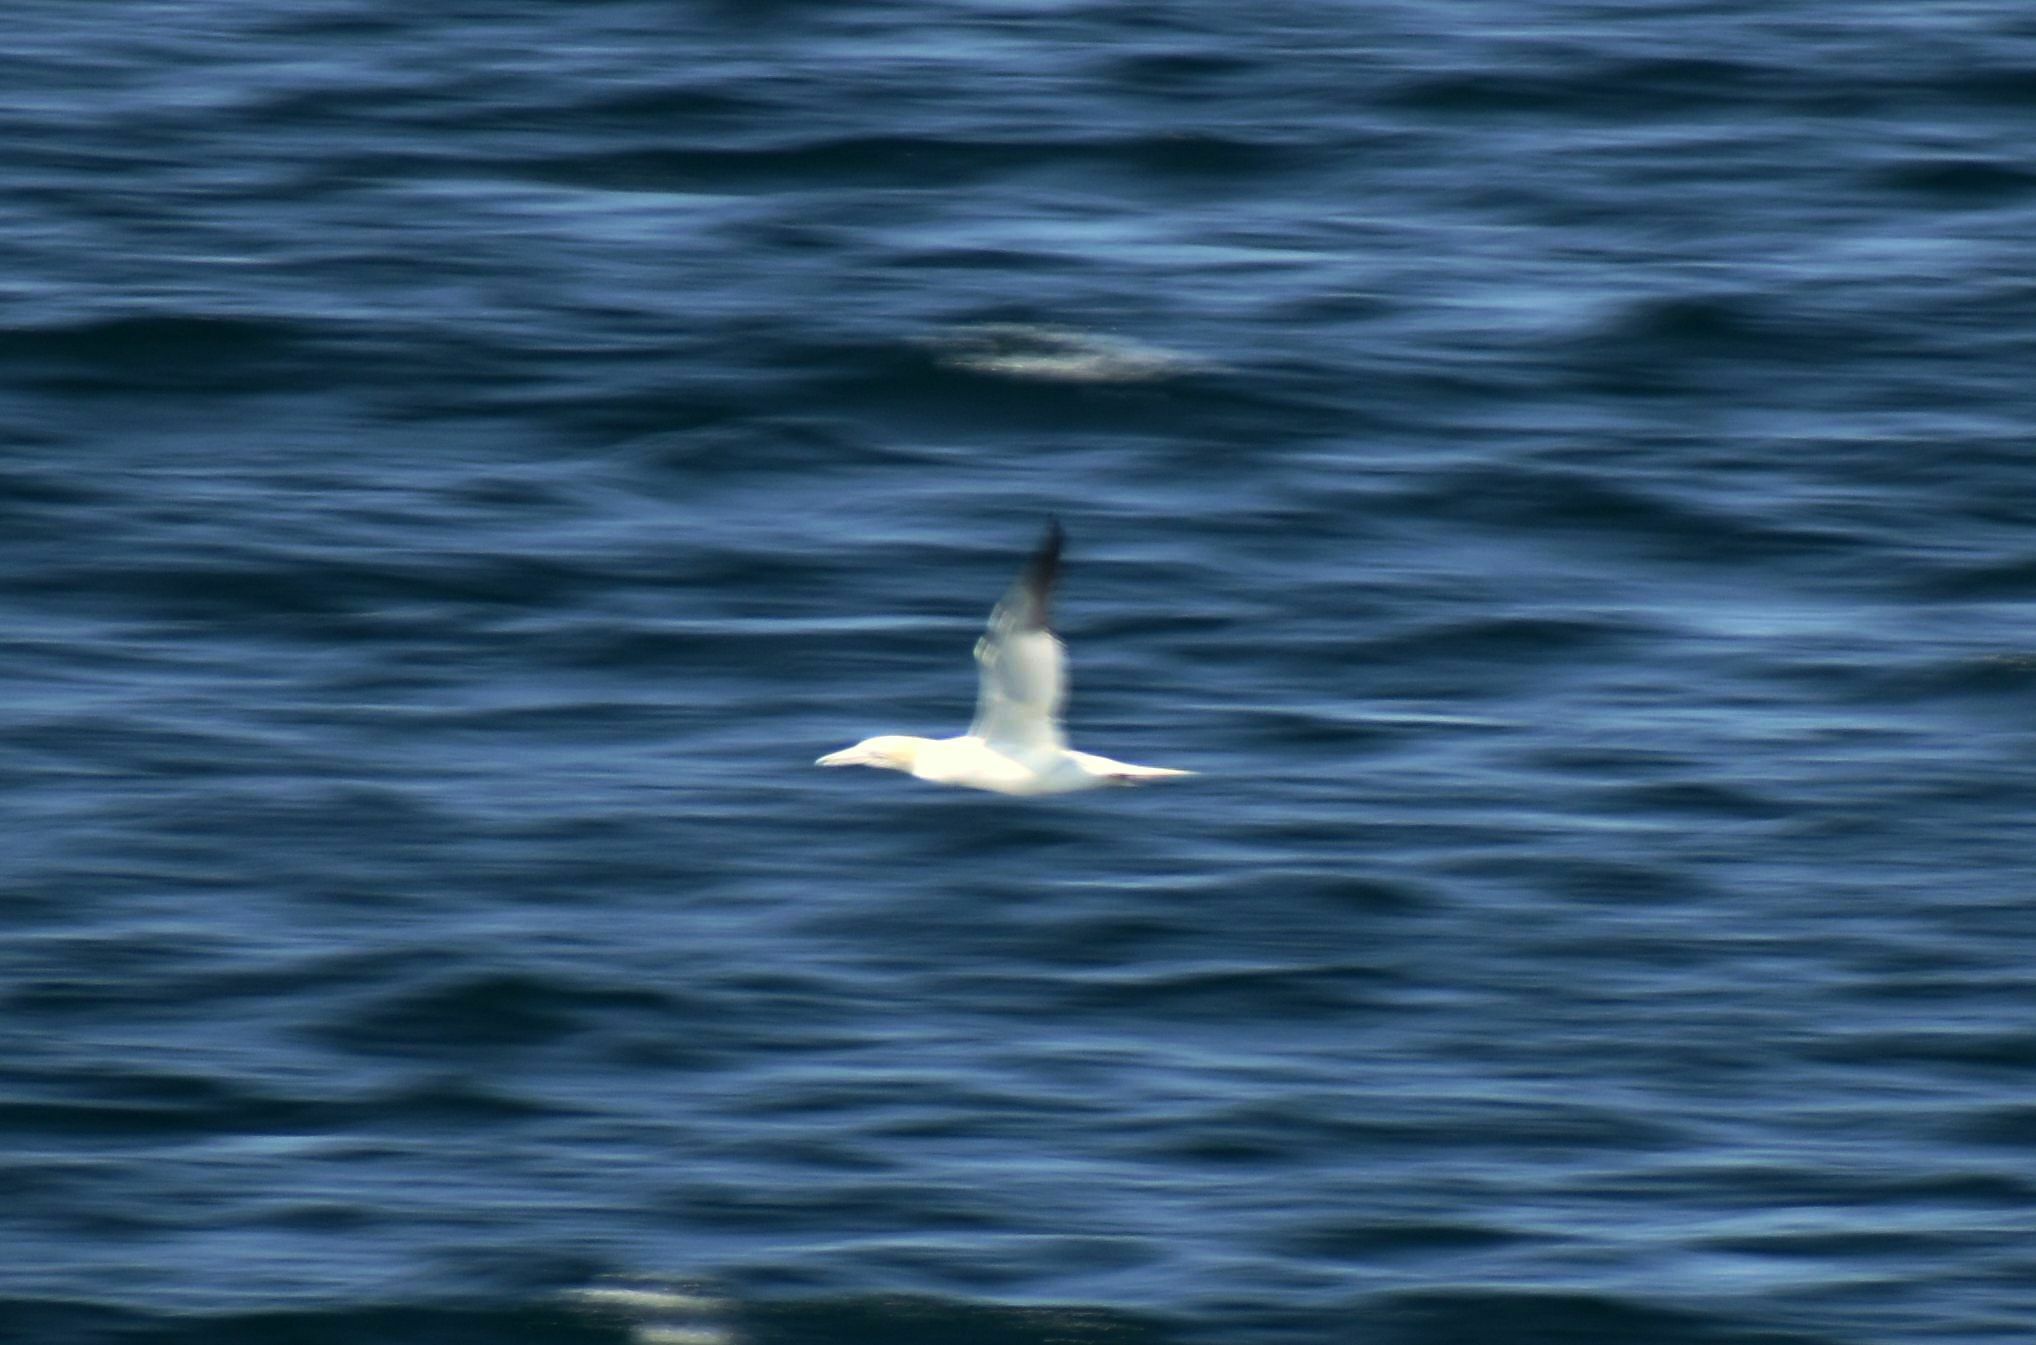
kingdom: Animalia
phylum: Chordata
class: Aves
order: Suliformes
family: Sulidae
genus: Morus
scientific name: Morus bassanus
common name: Northern gannet
